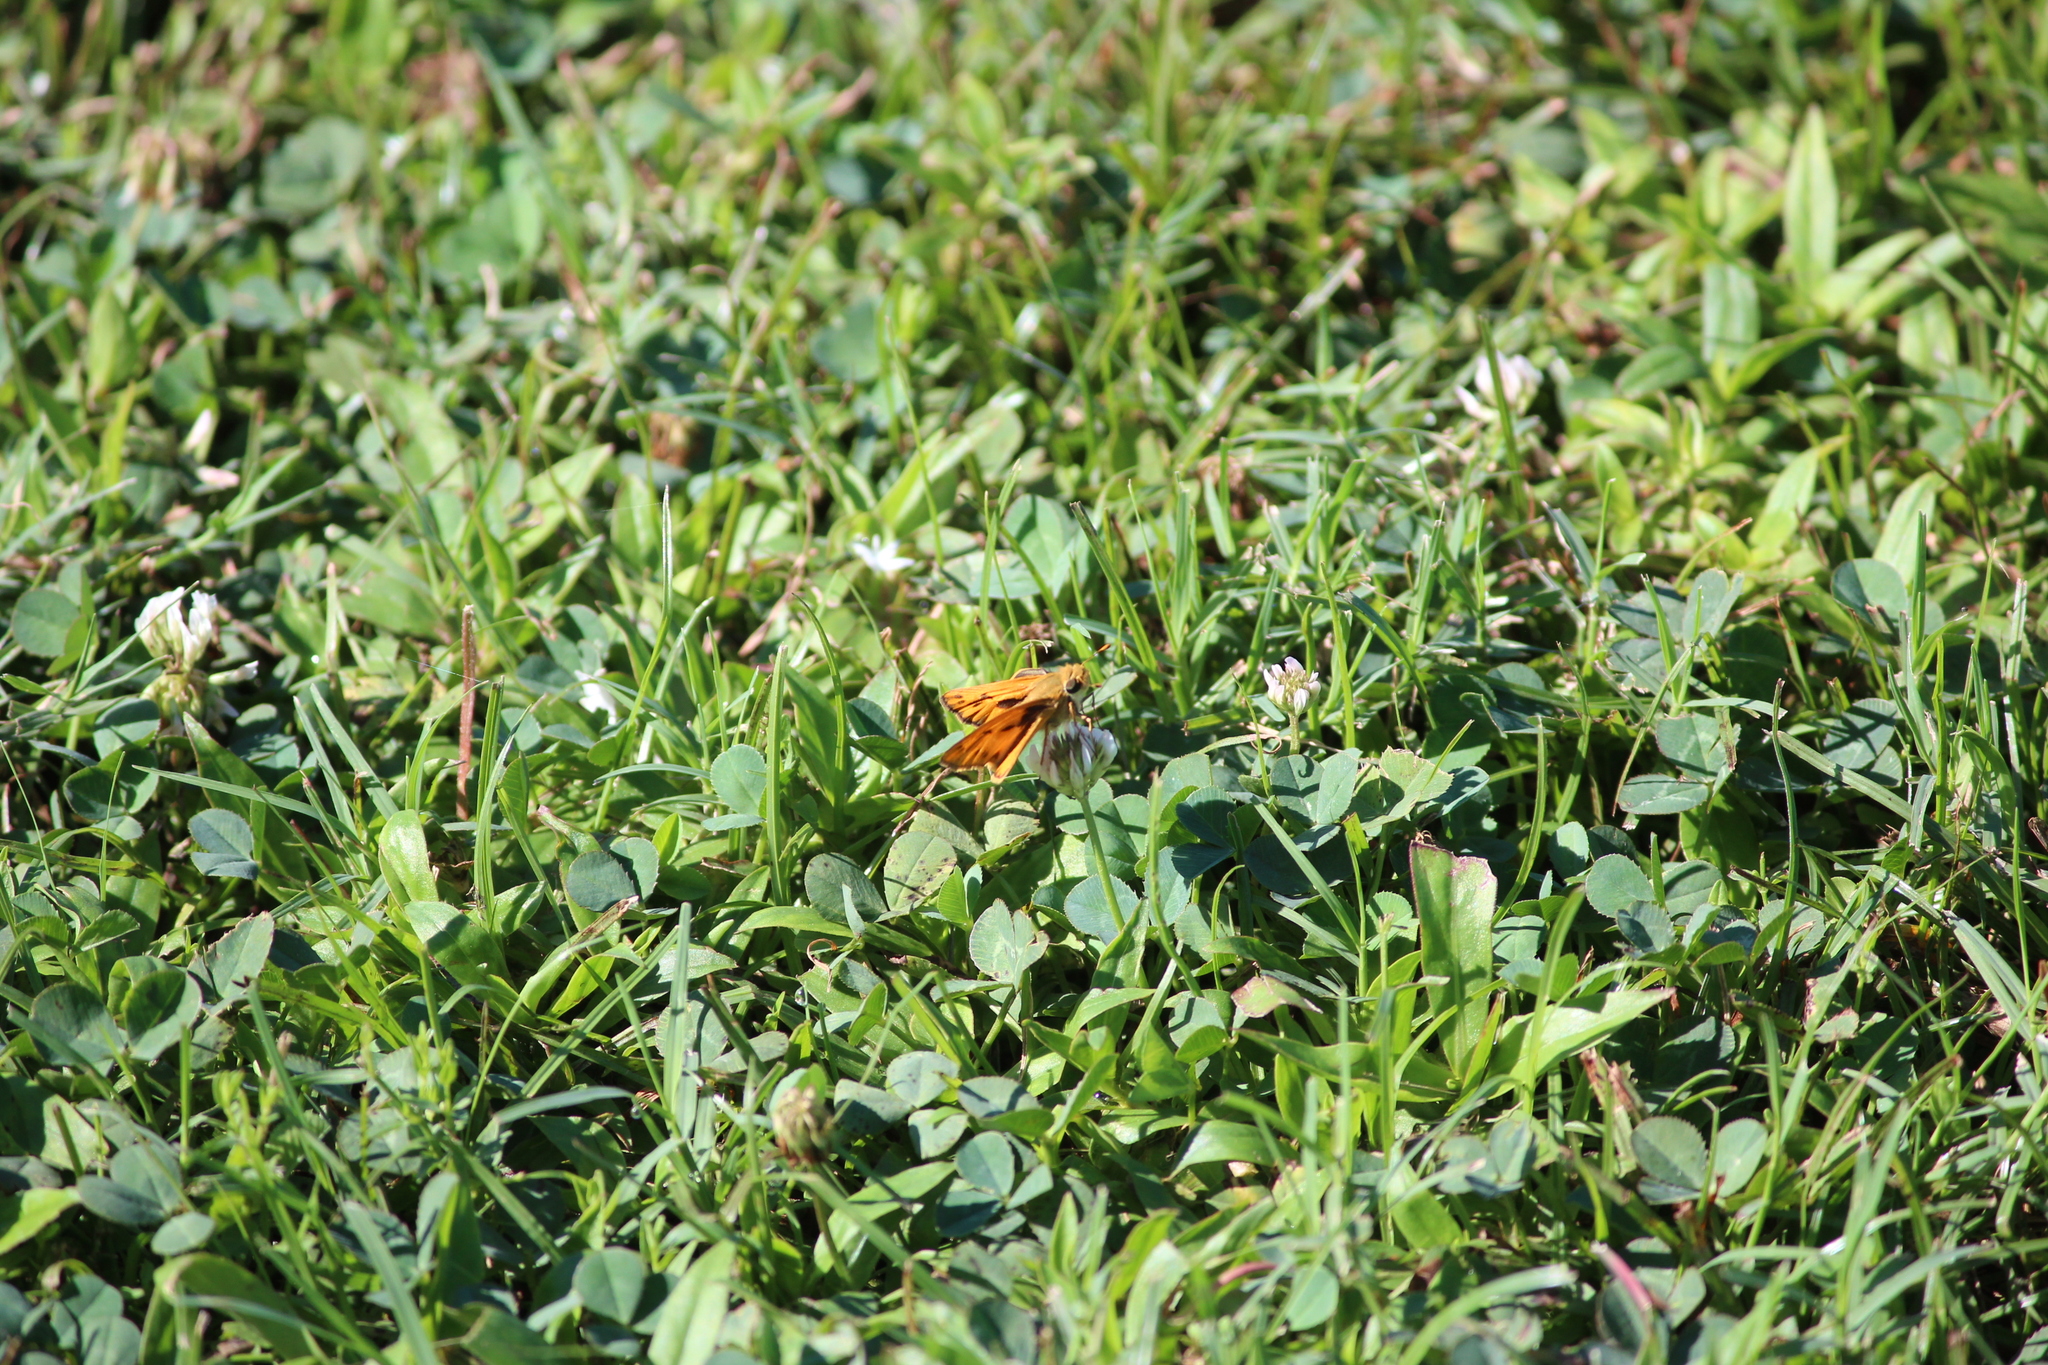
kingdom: Animalia
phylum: Arthropoda
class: Insecta
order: Lepidoptera
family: Hesperiidae
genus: Hylephila
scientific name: Hylephila phyleus
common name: Fiery skipper
